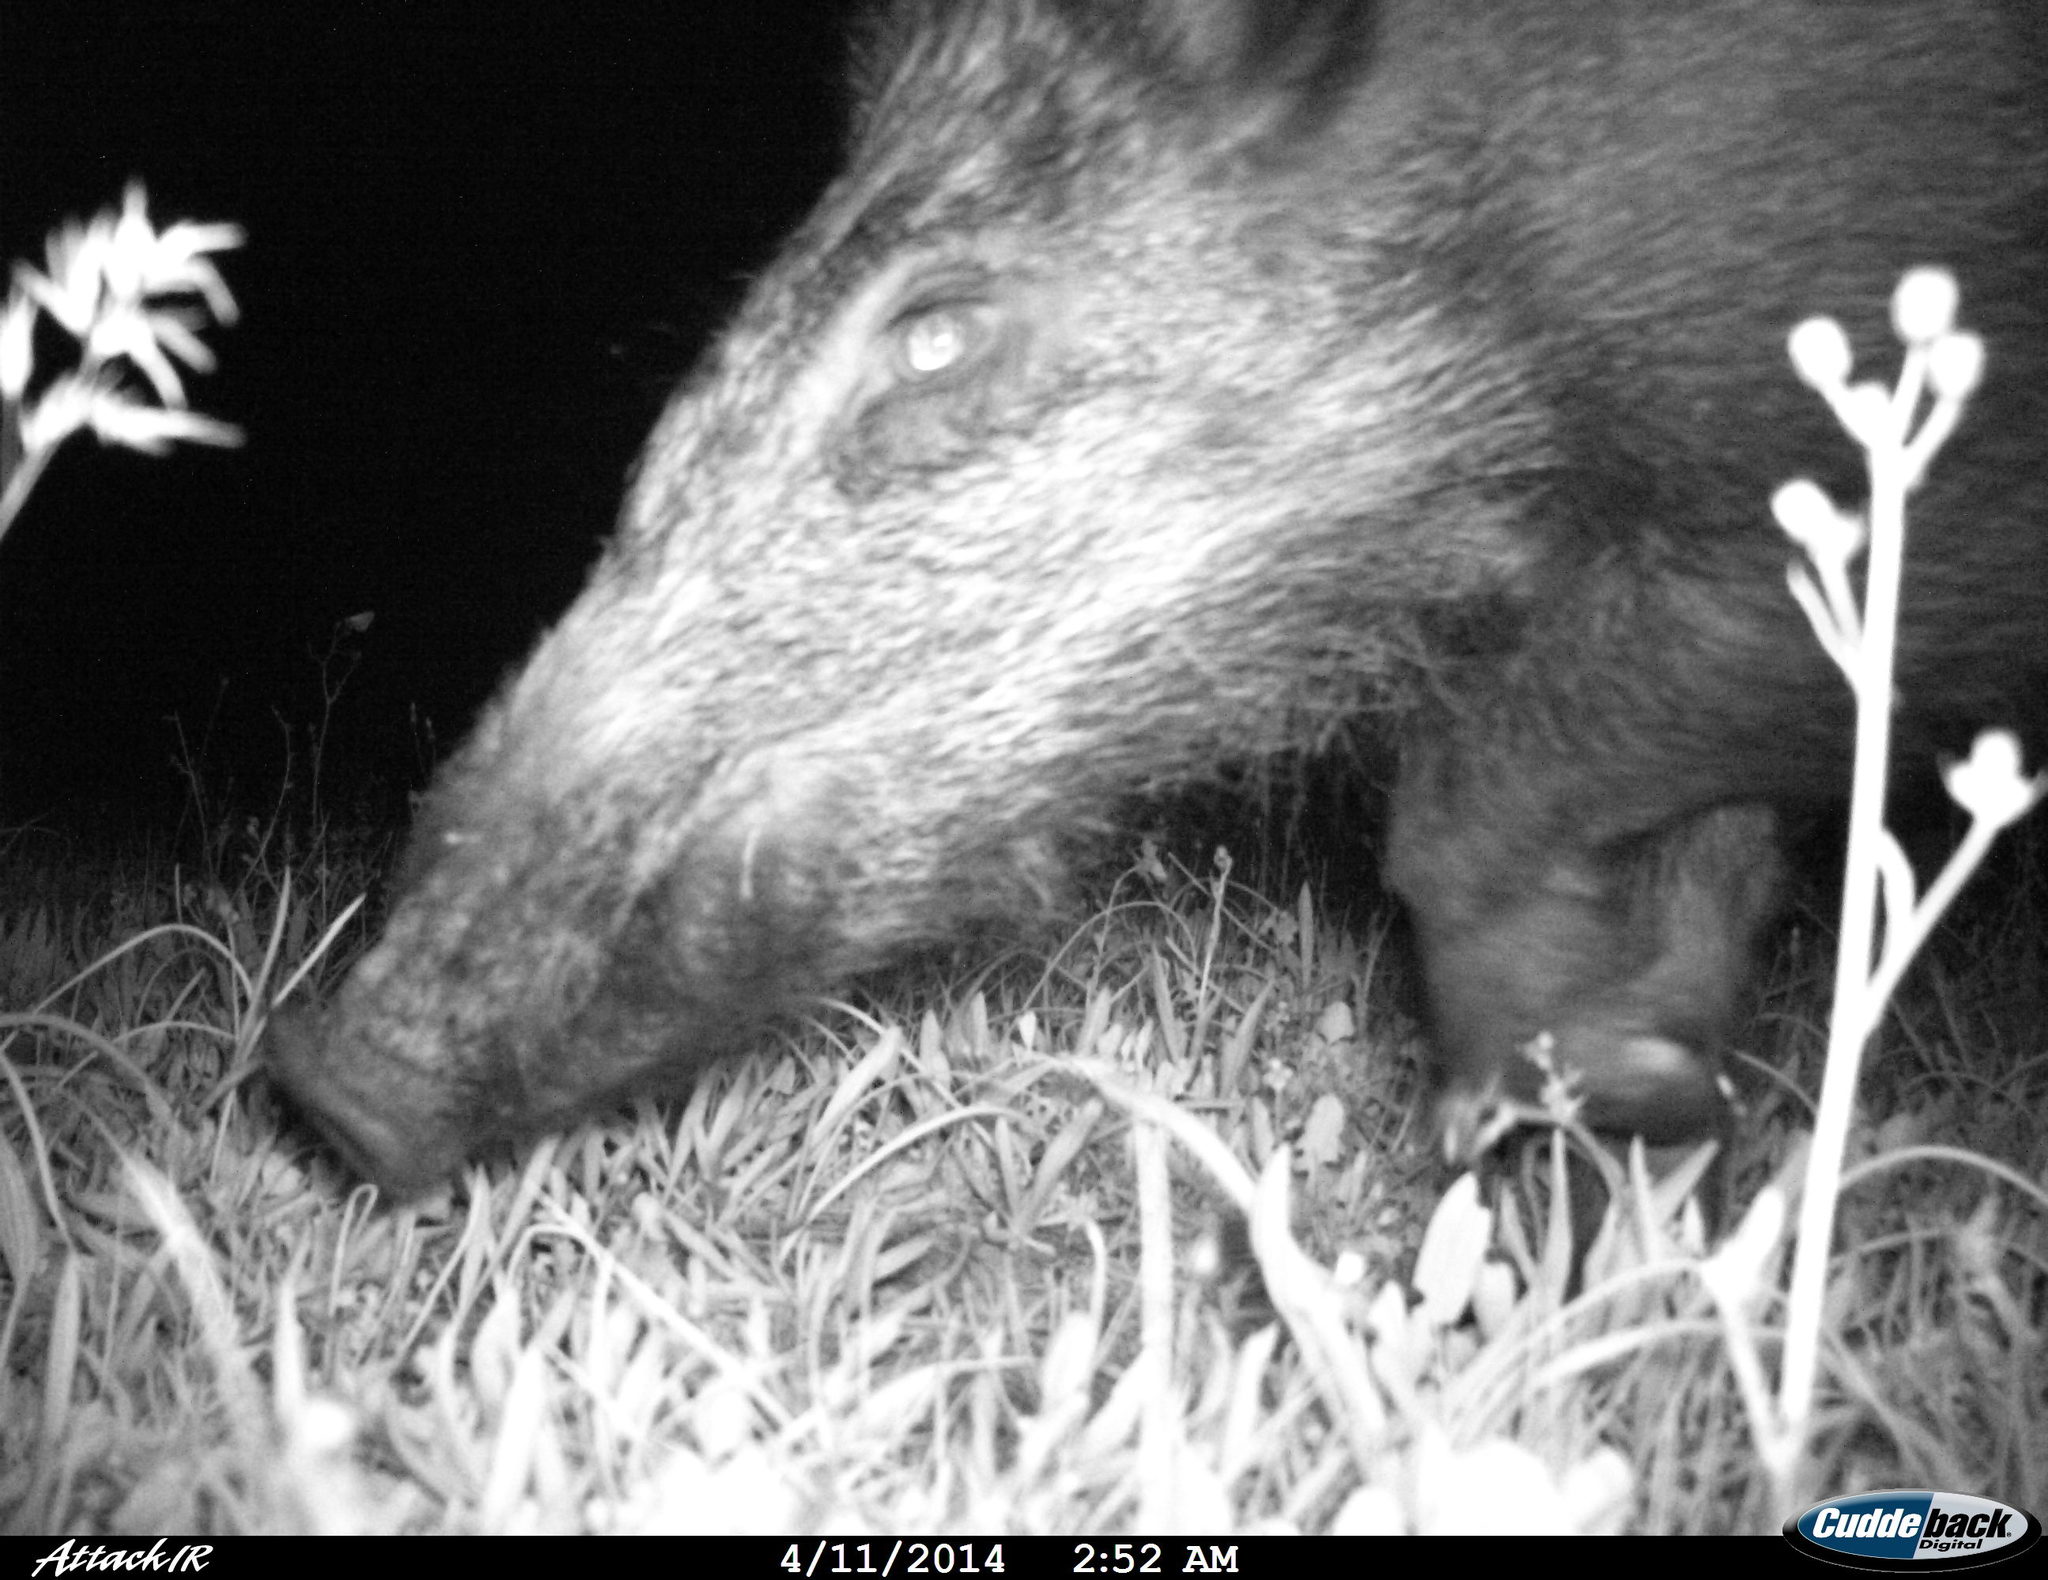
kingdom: Animalia
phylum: Chordata
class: Mammalia
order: Artiodactyla
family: Suidae
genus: Sus
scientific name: Sus scrofa
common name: Wild boar
